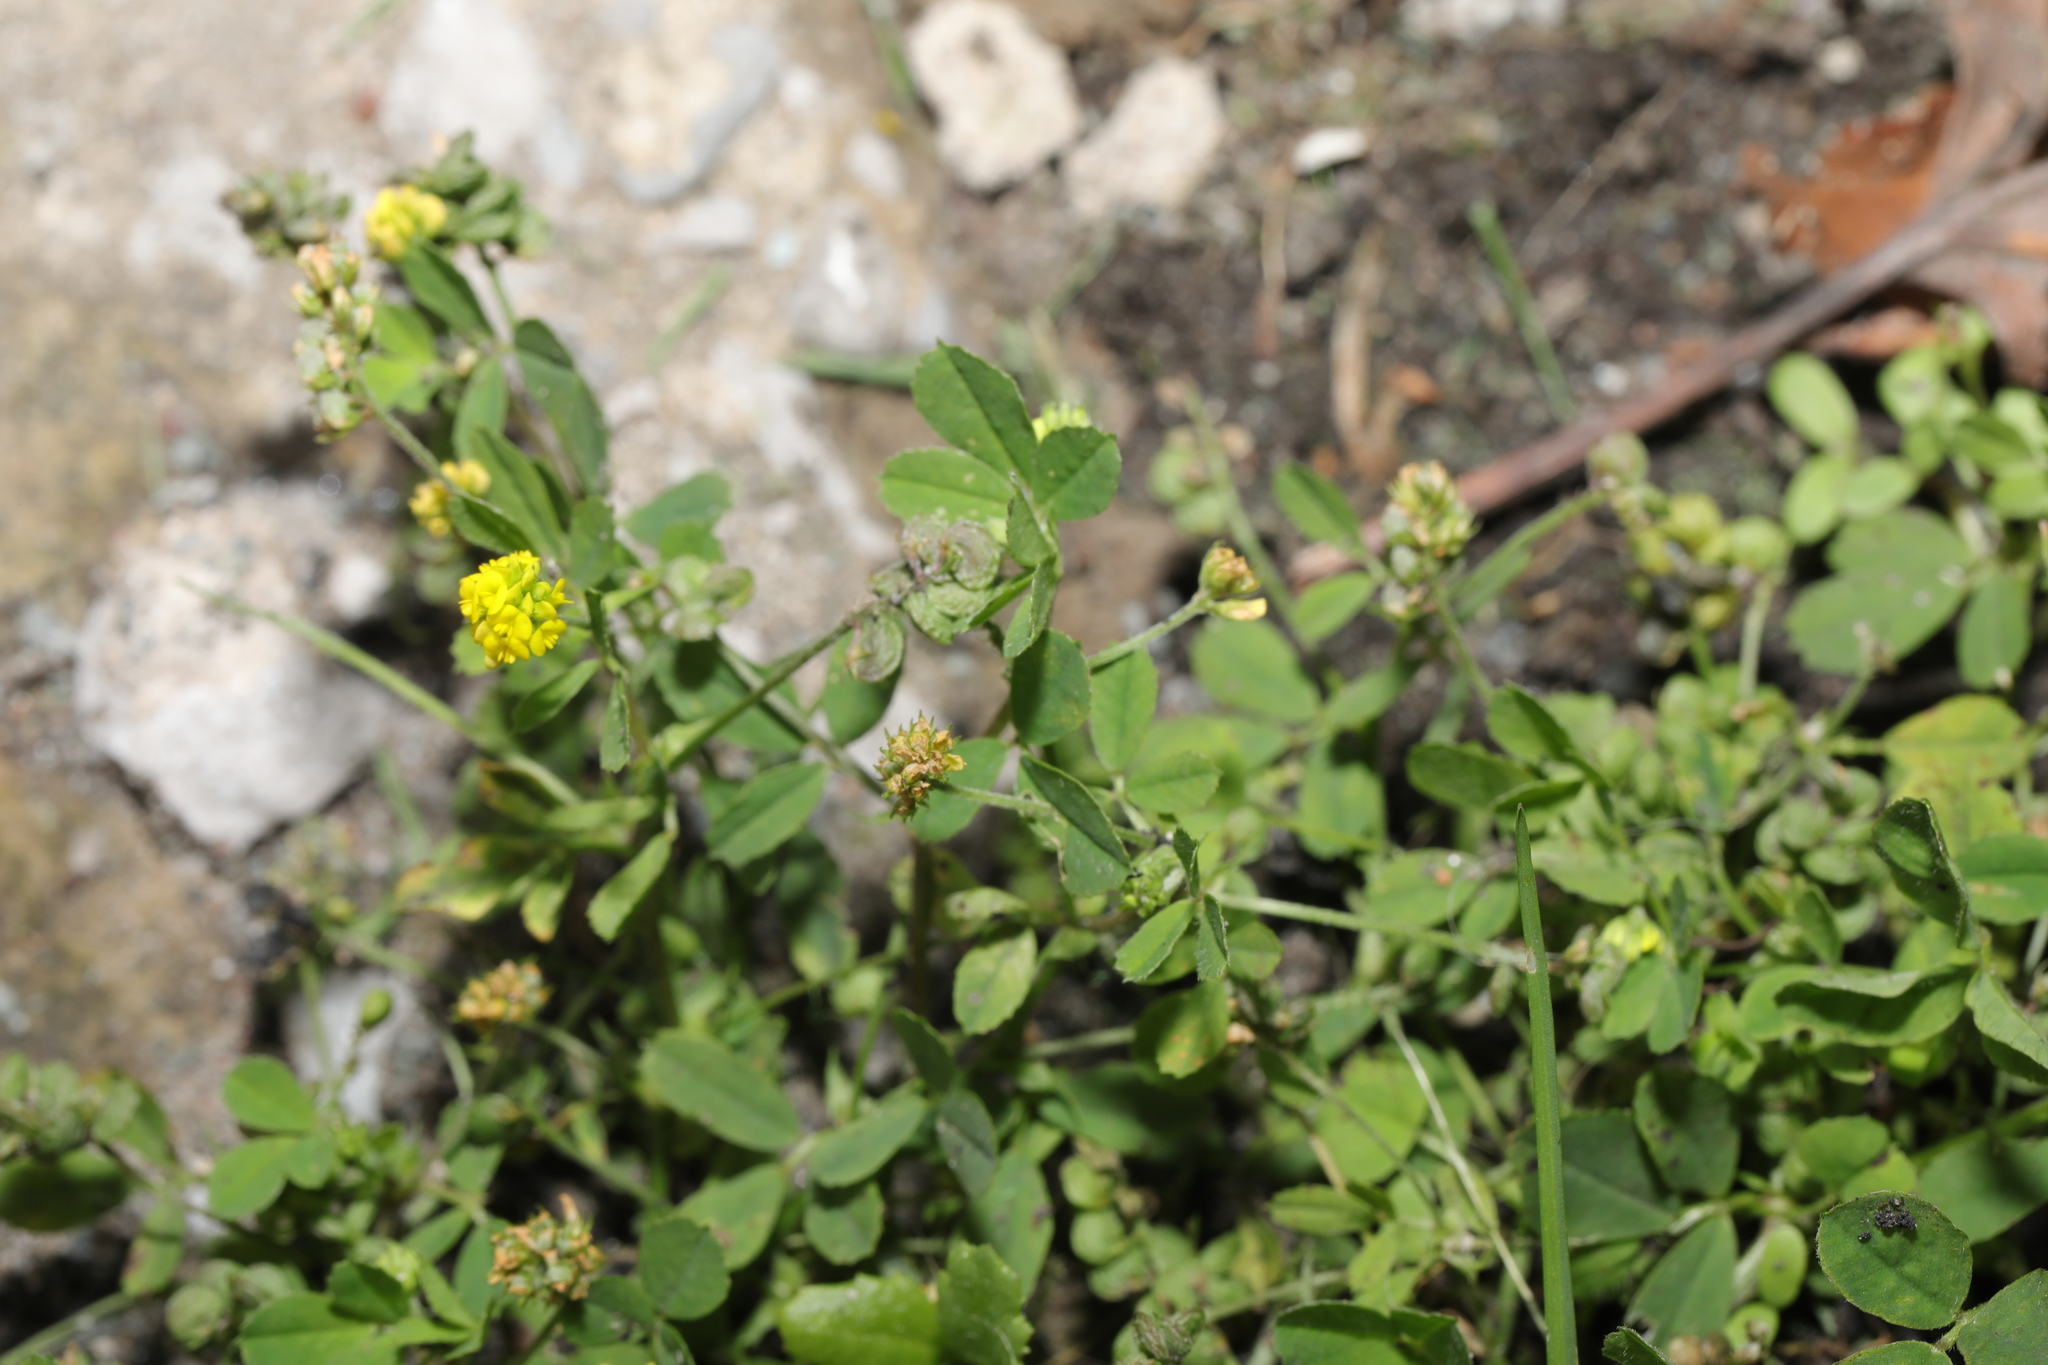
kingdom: Plantae
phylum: Tracheophyta
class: Magnoliopsida
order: Fabales
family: Fabaceae
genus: Medicago
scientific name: Medicago lupulina
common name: Black medick
